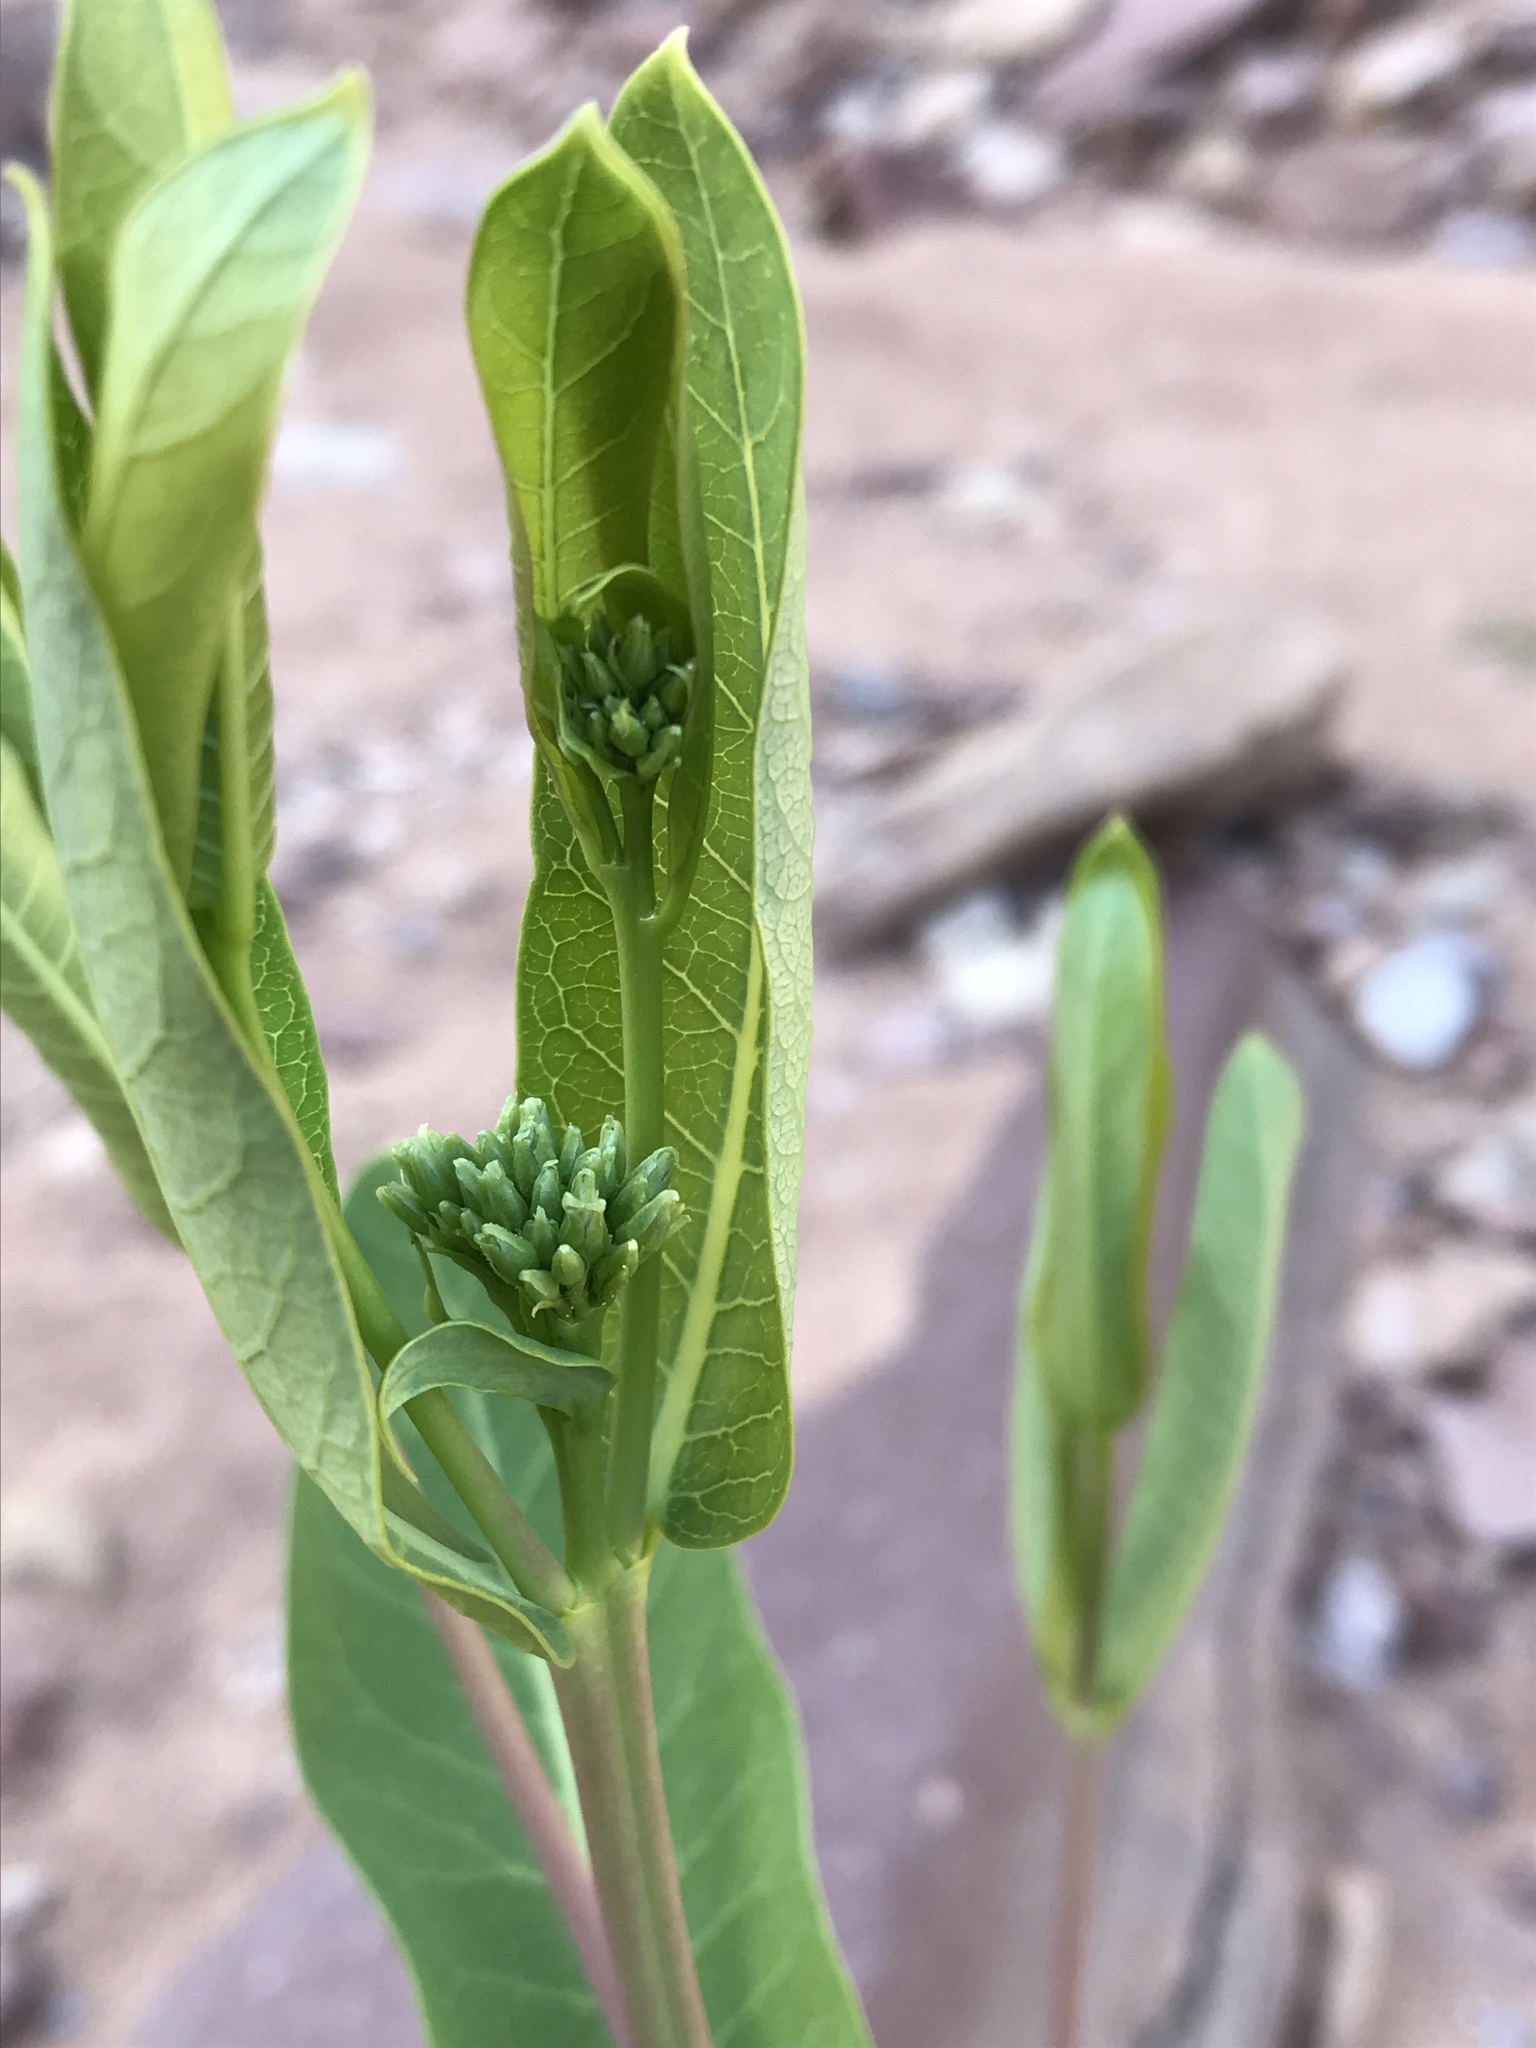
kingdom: Plantae
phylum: Tracheophyta
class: Magnoliopsida
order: Gentianales
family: Apocynaceae
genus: Apocynum
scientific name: Apocynum cannabinum
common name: Hemp dogbane
